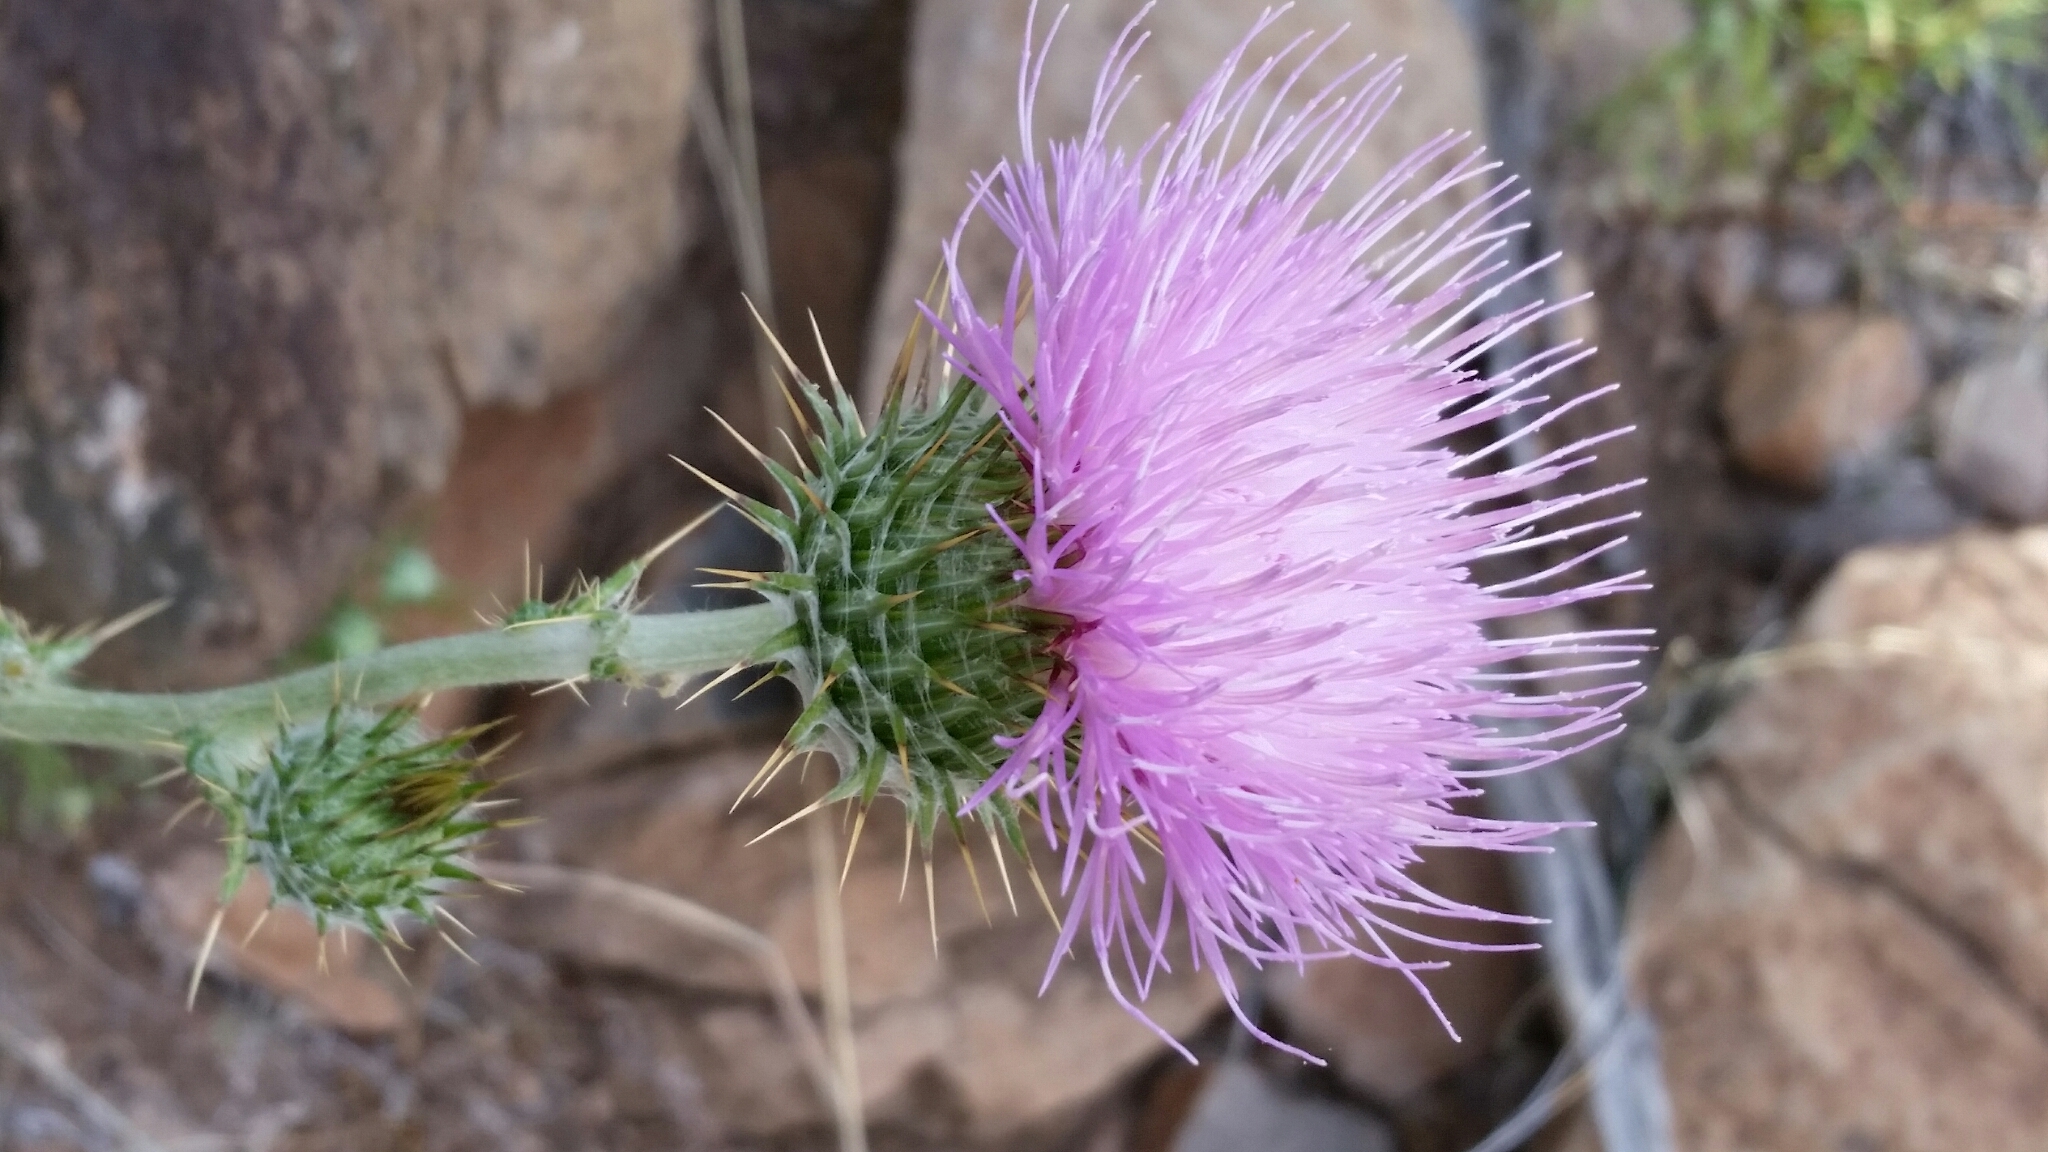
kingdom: Plantae
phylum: Tracheophyta
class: Magnoliopsida
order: Asterales
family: Asteraceae
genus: Cirsium
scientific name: Cirsium neomexicanum
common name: New mexico thistle
